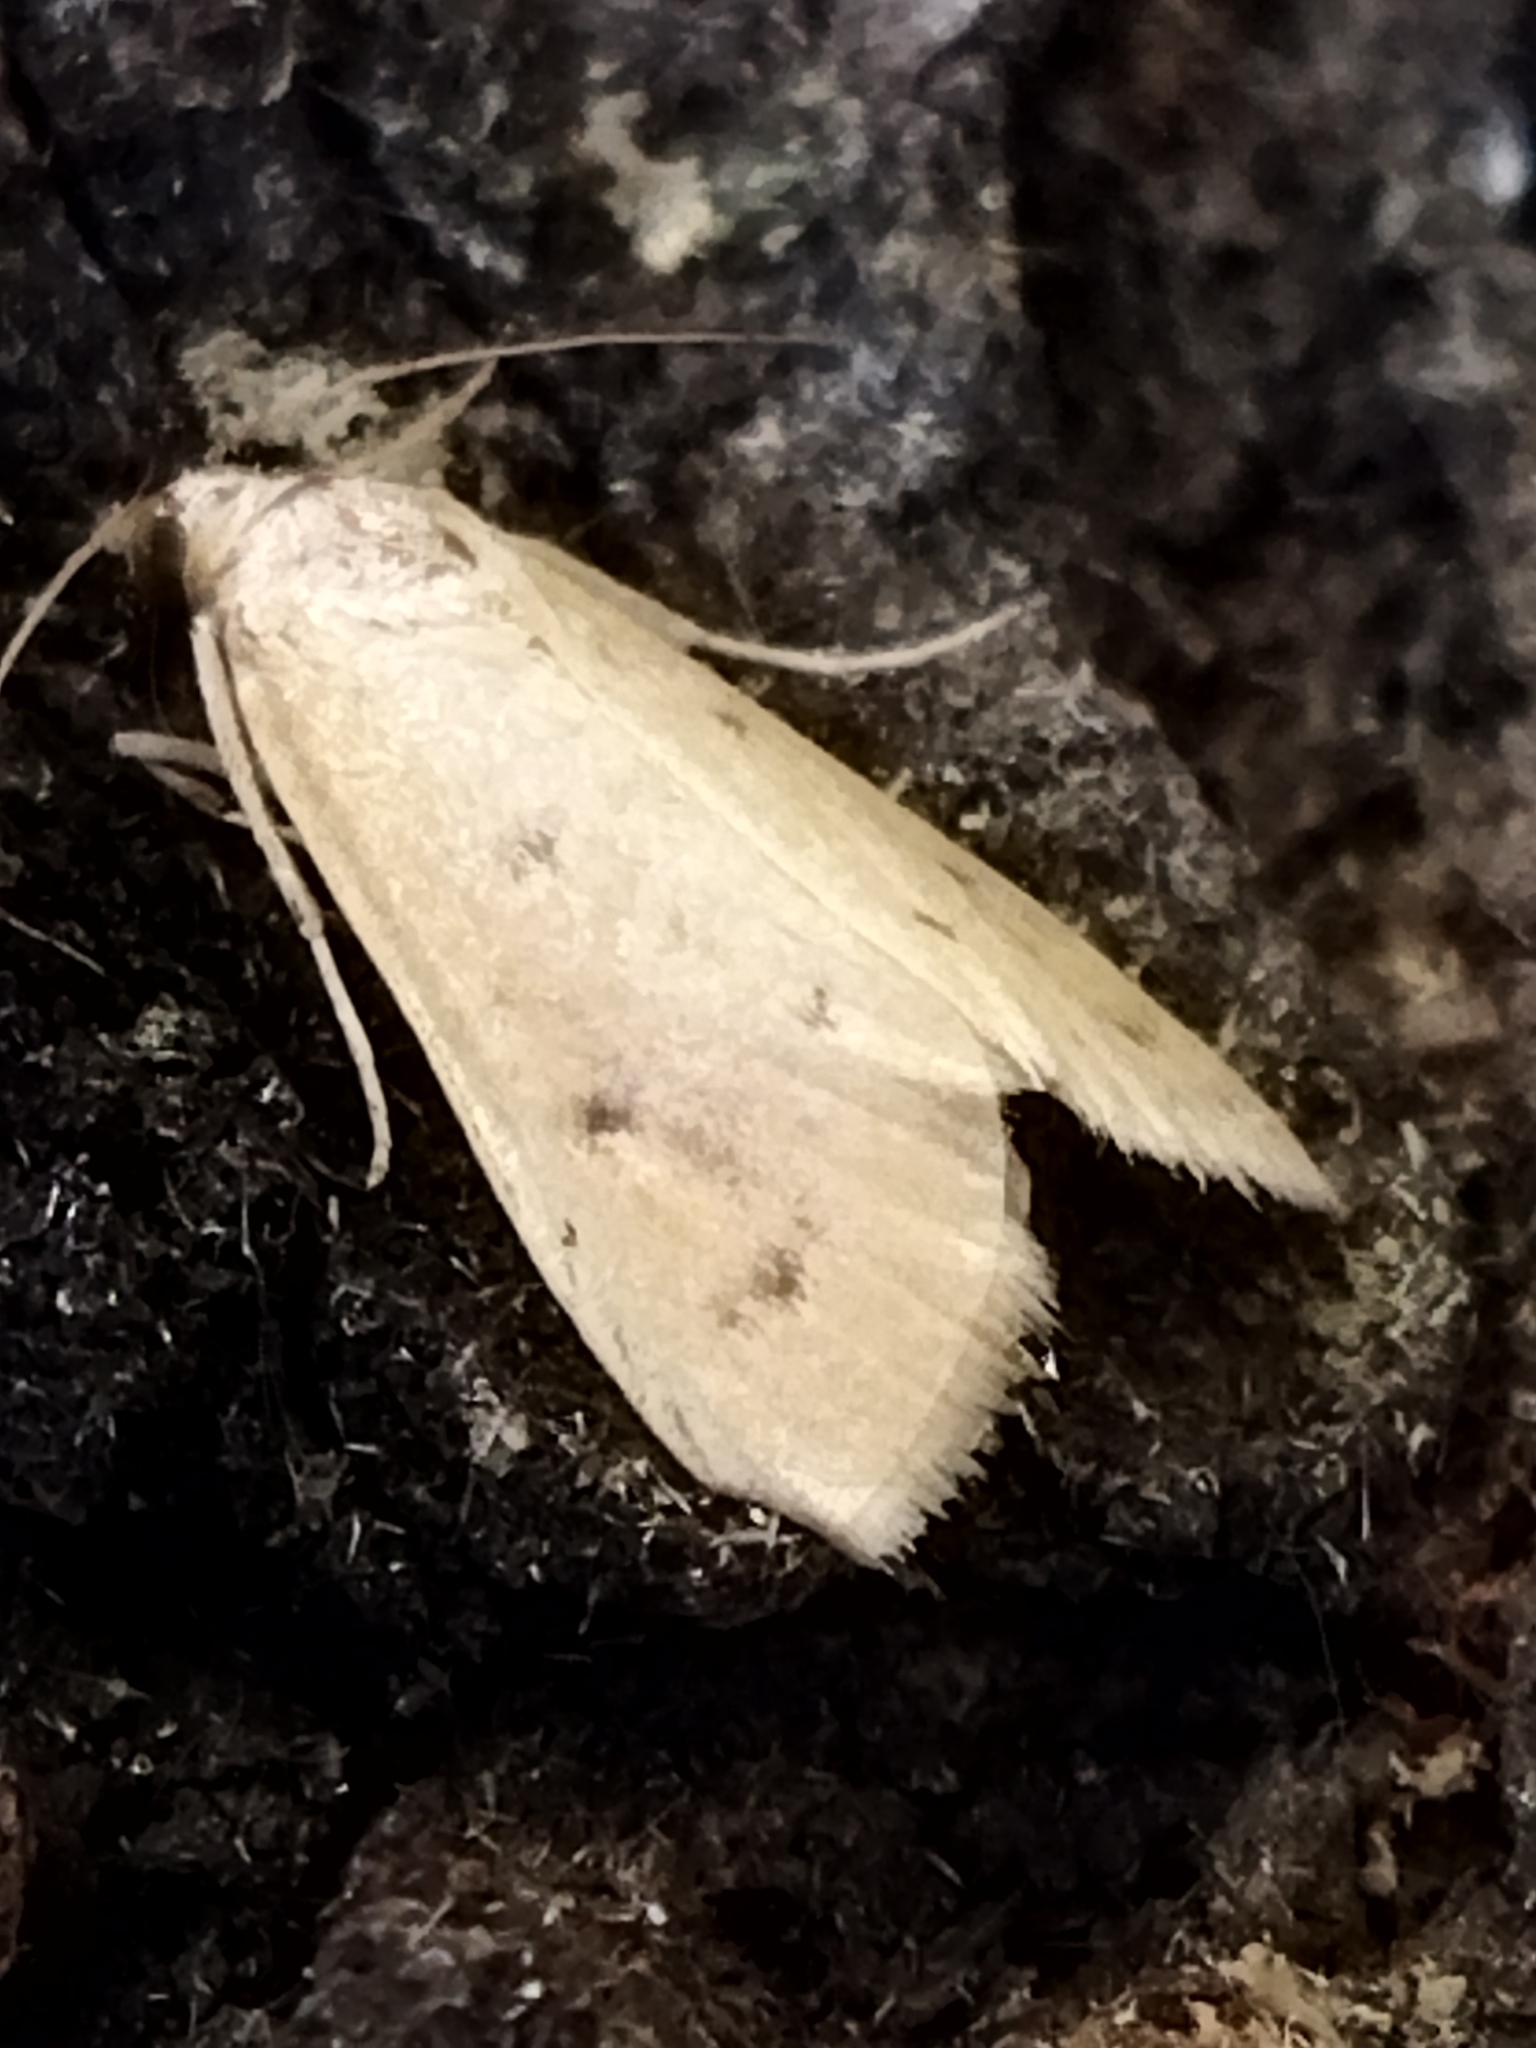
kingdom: Animalia
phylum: Arthropoda
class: Insecta
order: Lepidoptera
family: Crambidae
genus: Achyra
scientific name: Achyra nudalis
